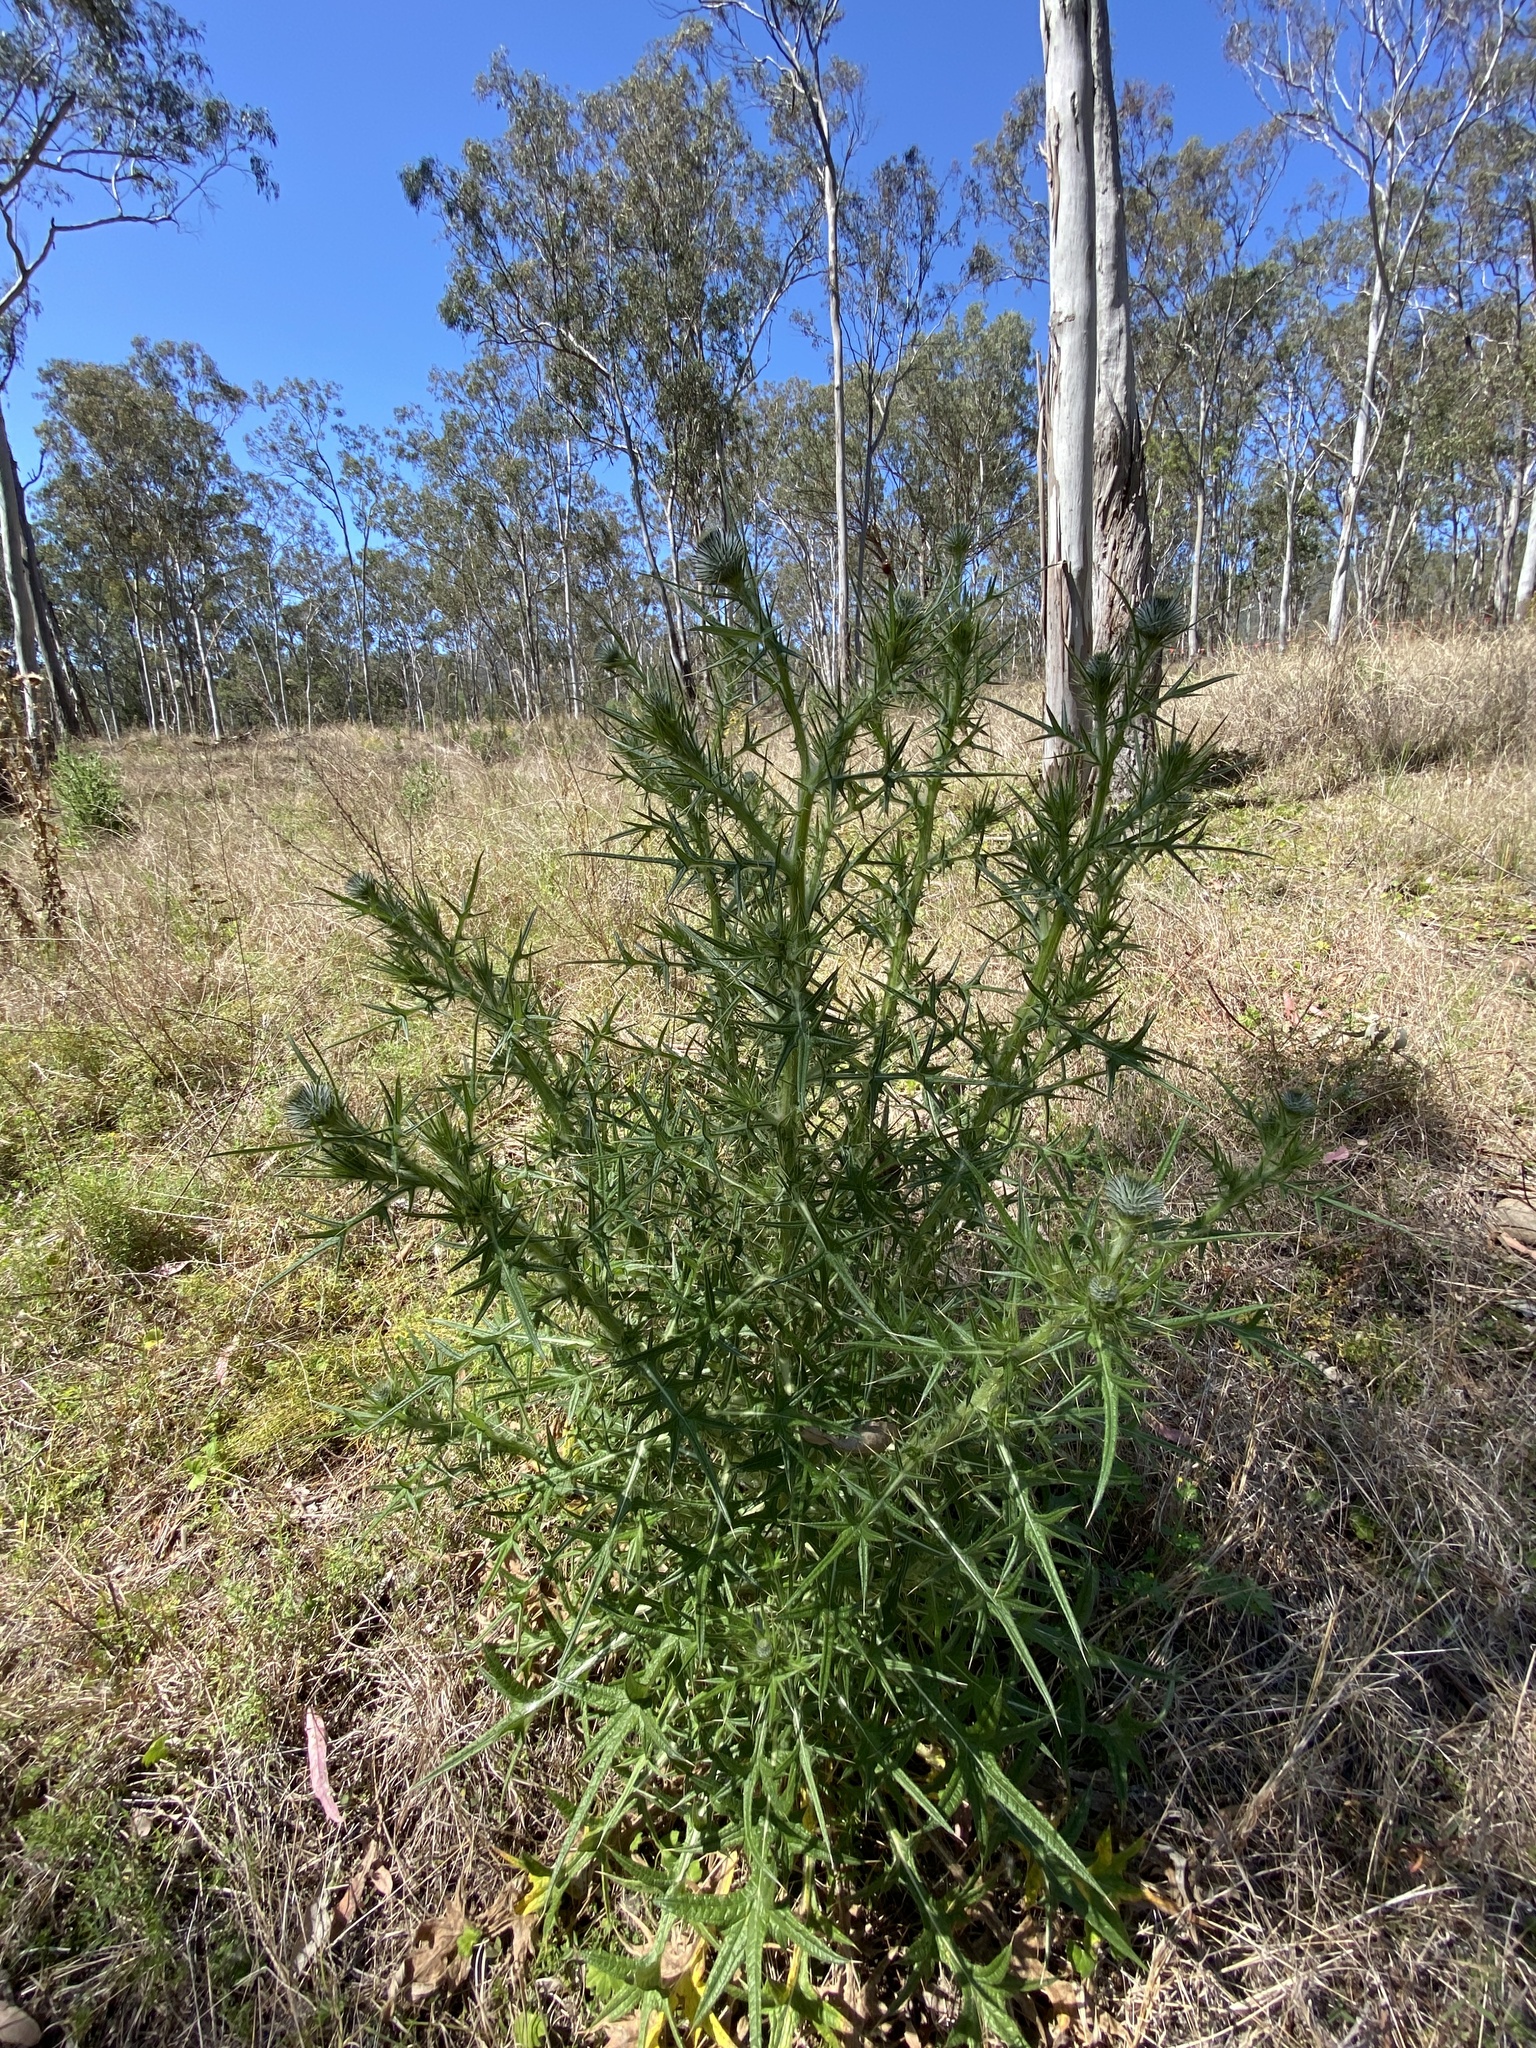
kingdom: Plantae
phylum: Tracheophyta
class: Magnoliopsida
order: Asterales
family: Asteraceae
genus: Cirsium
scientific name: Cirsium vulgare
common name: Bull thistle
